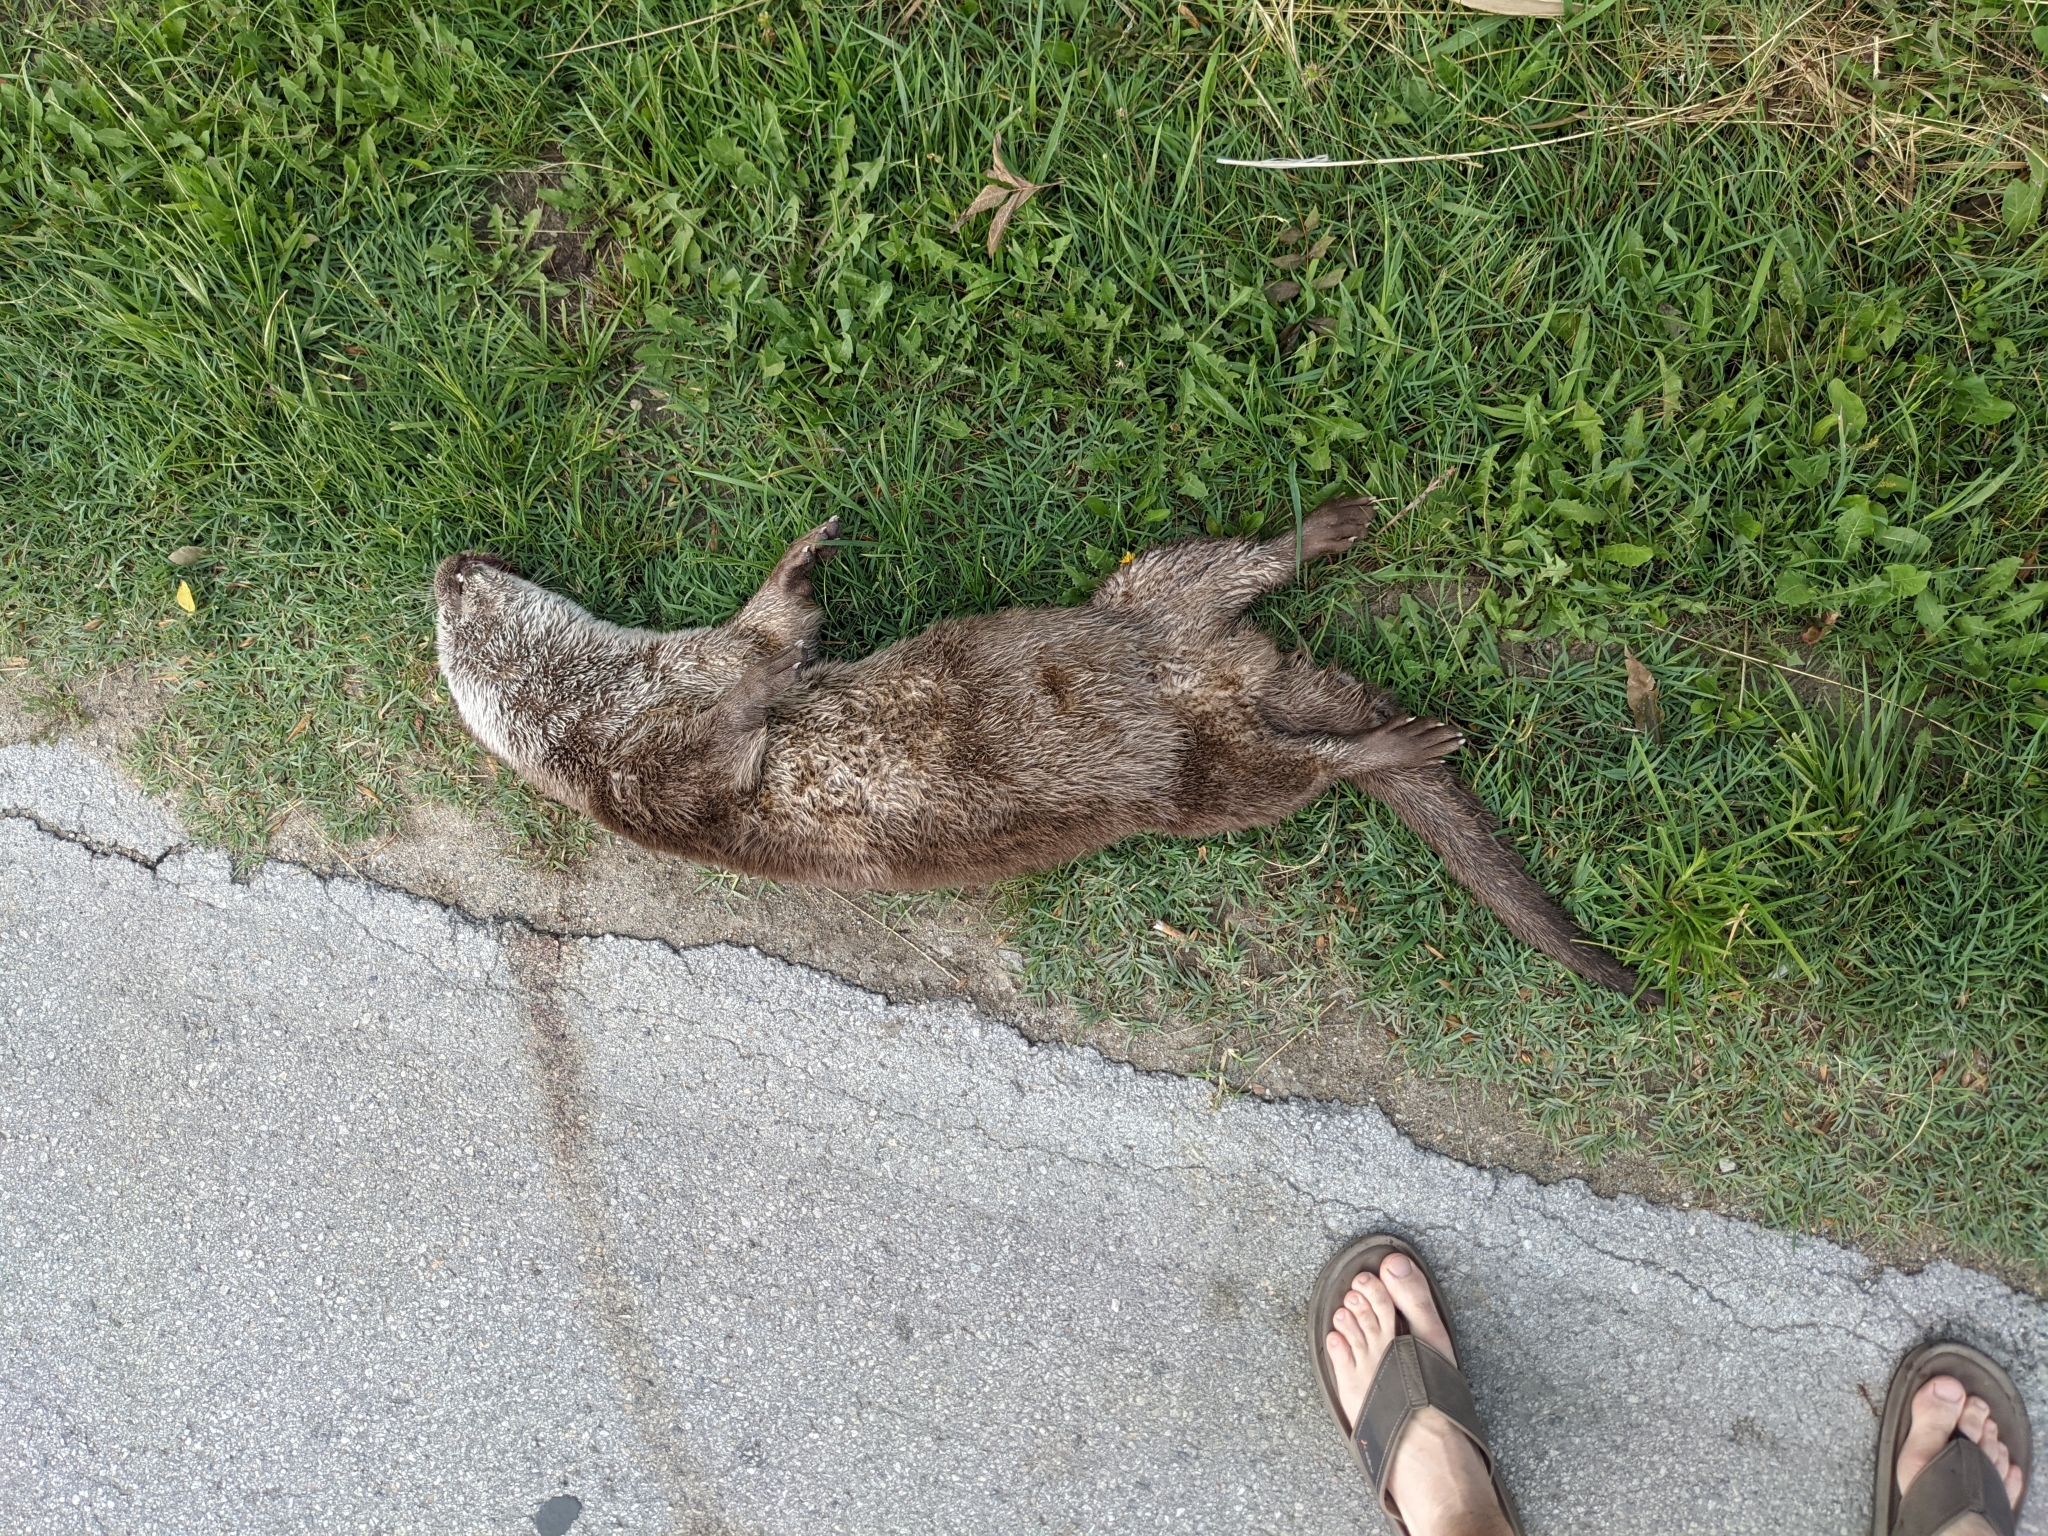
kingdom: Animalia
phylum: Chordata
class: Mammalia
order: Carnivora
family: Mustelidae
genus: Lutra
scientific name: Lutra lutra
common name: European otter
